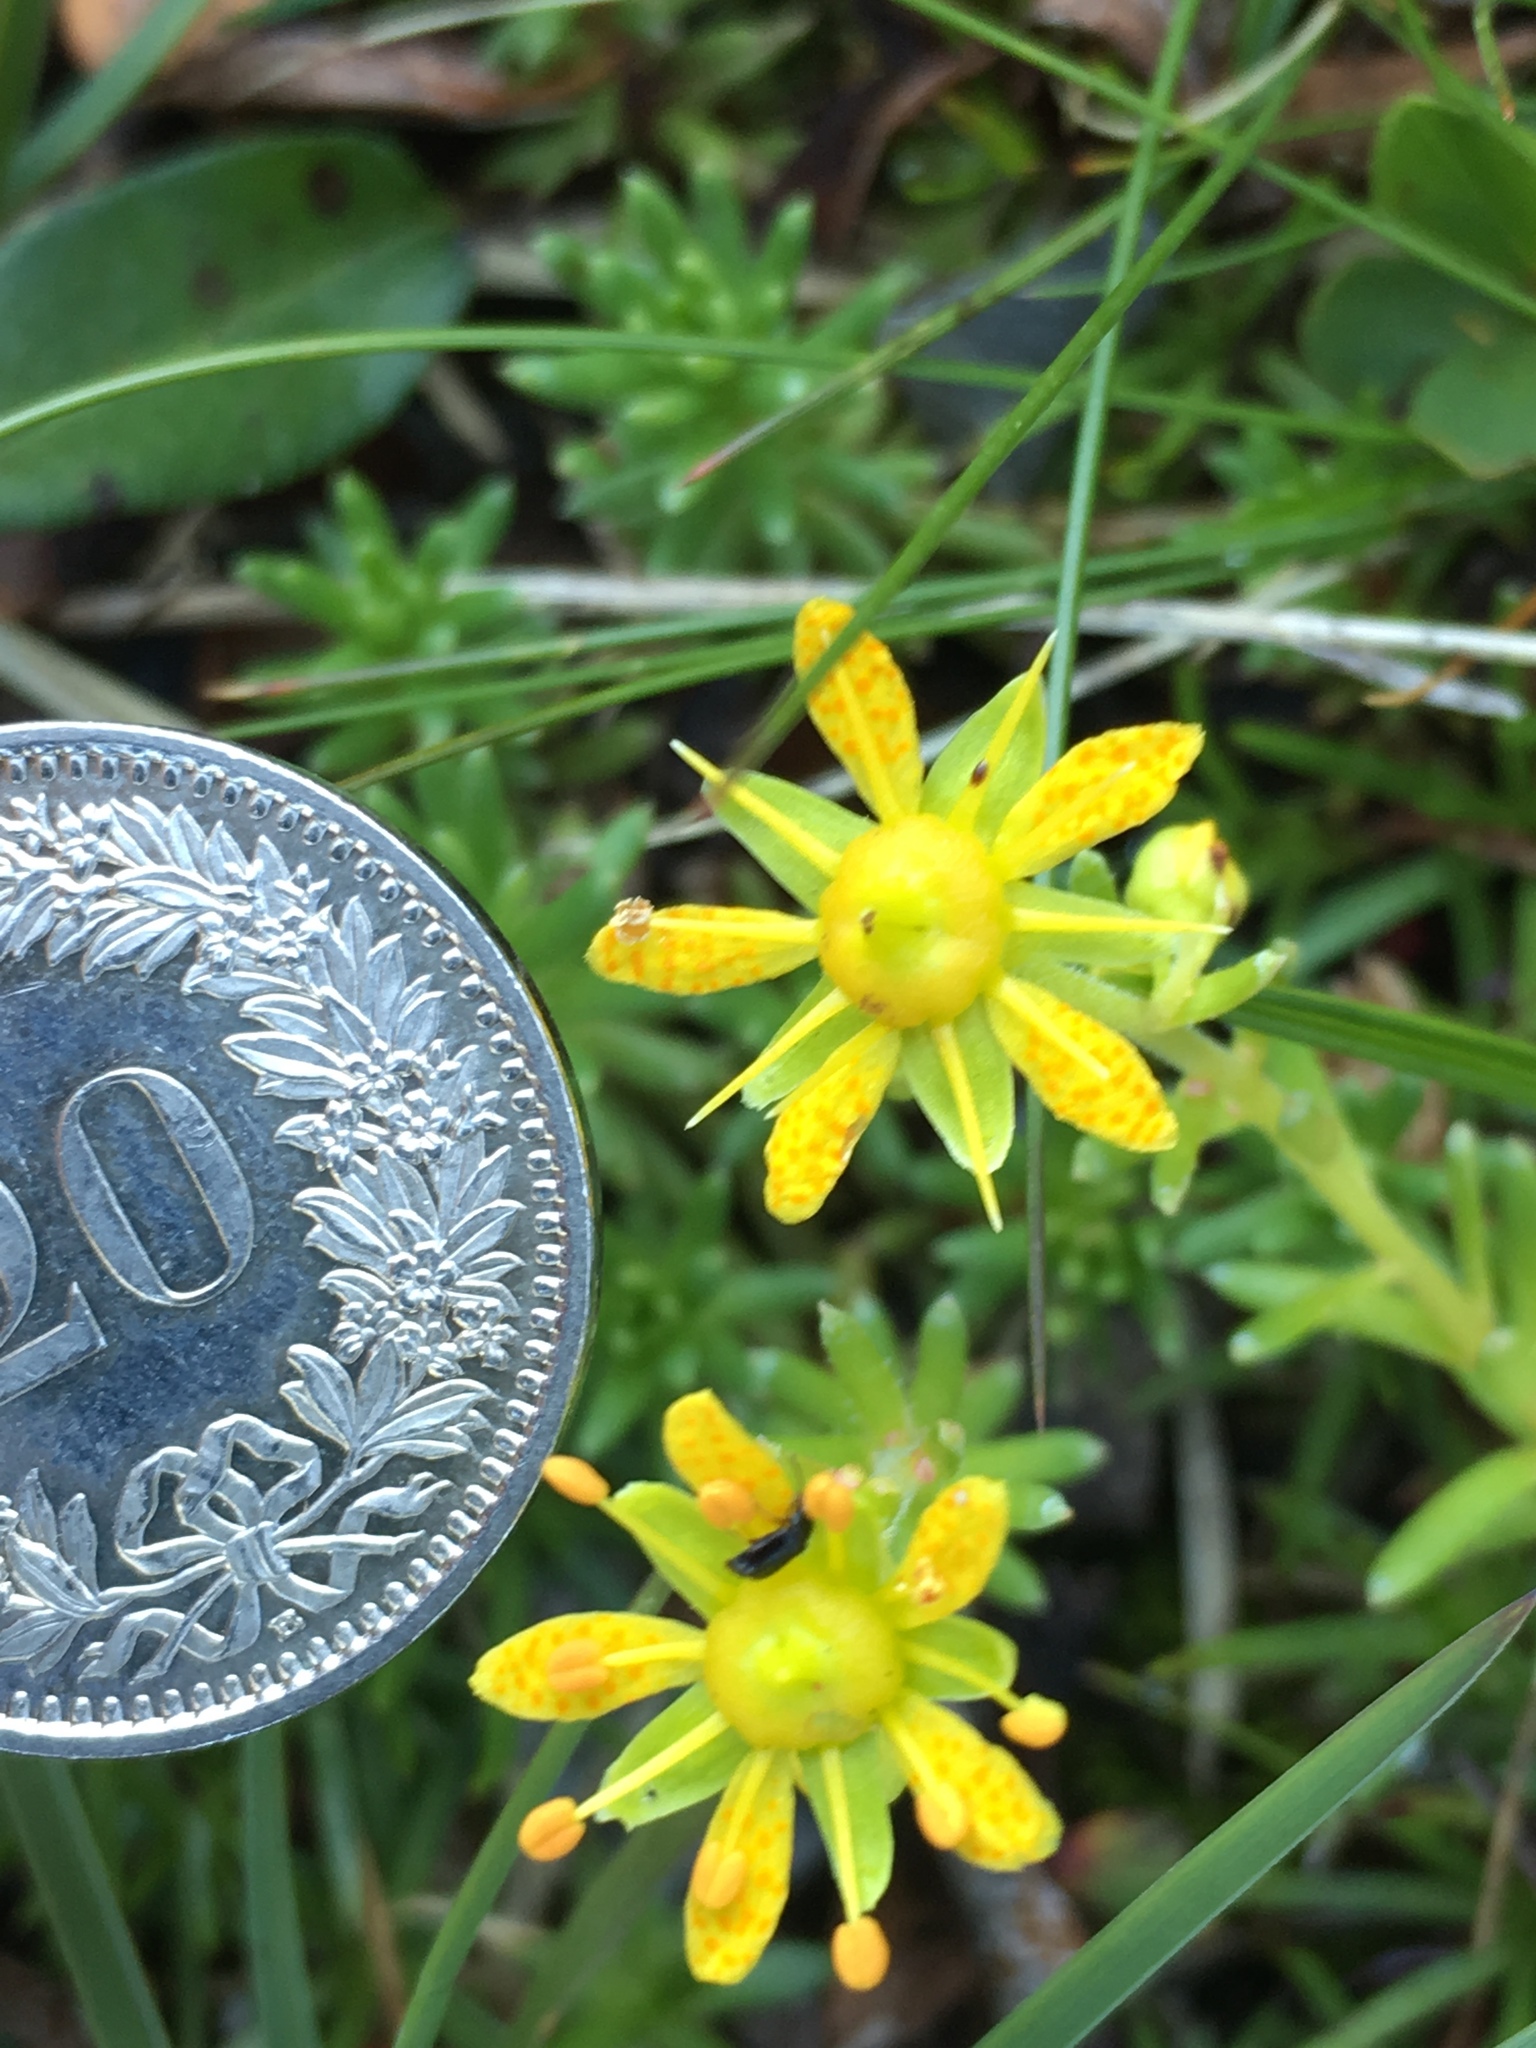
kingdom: Plantae
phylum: Tracheophyta
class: Magnoliopsida
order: Saxifragales
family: Saxifragaceae
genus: Saxifraga
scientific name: Saxifraga aizoides
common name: Yellow mountain saxifrage
